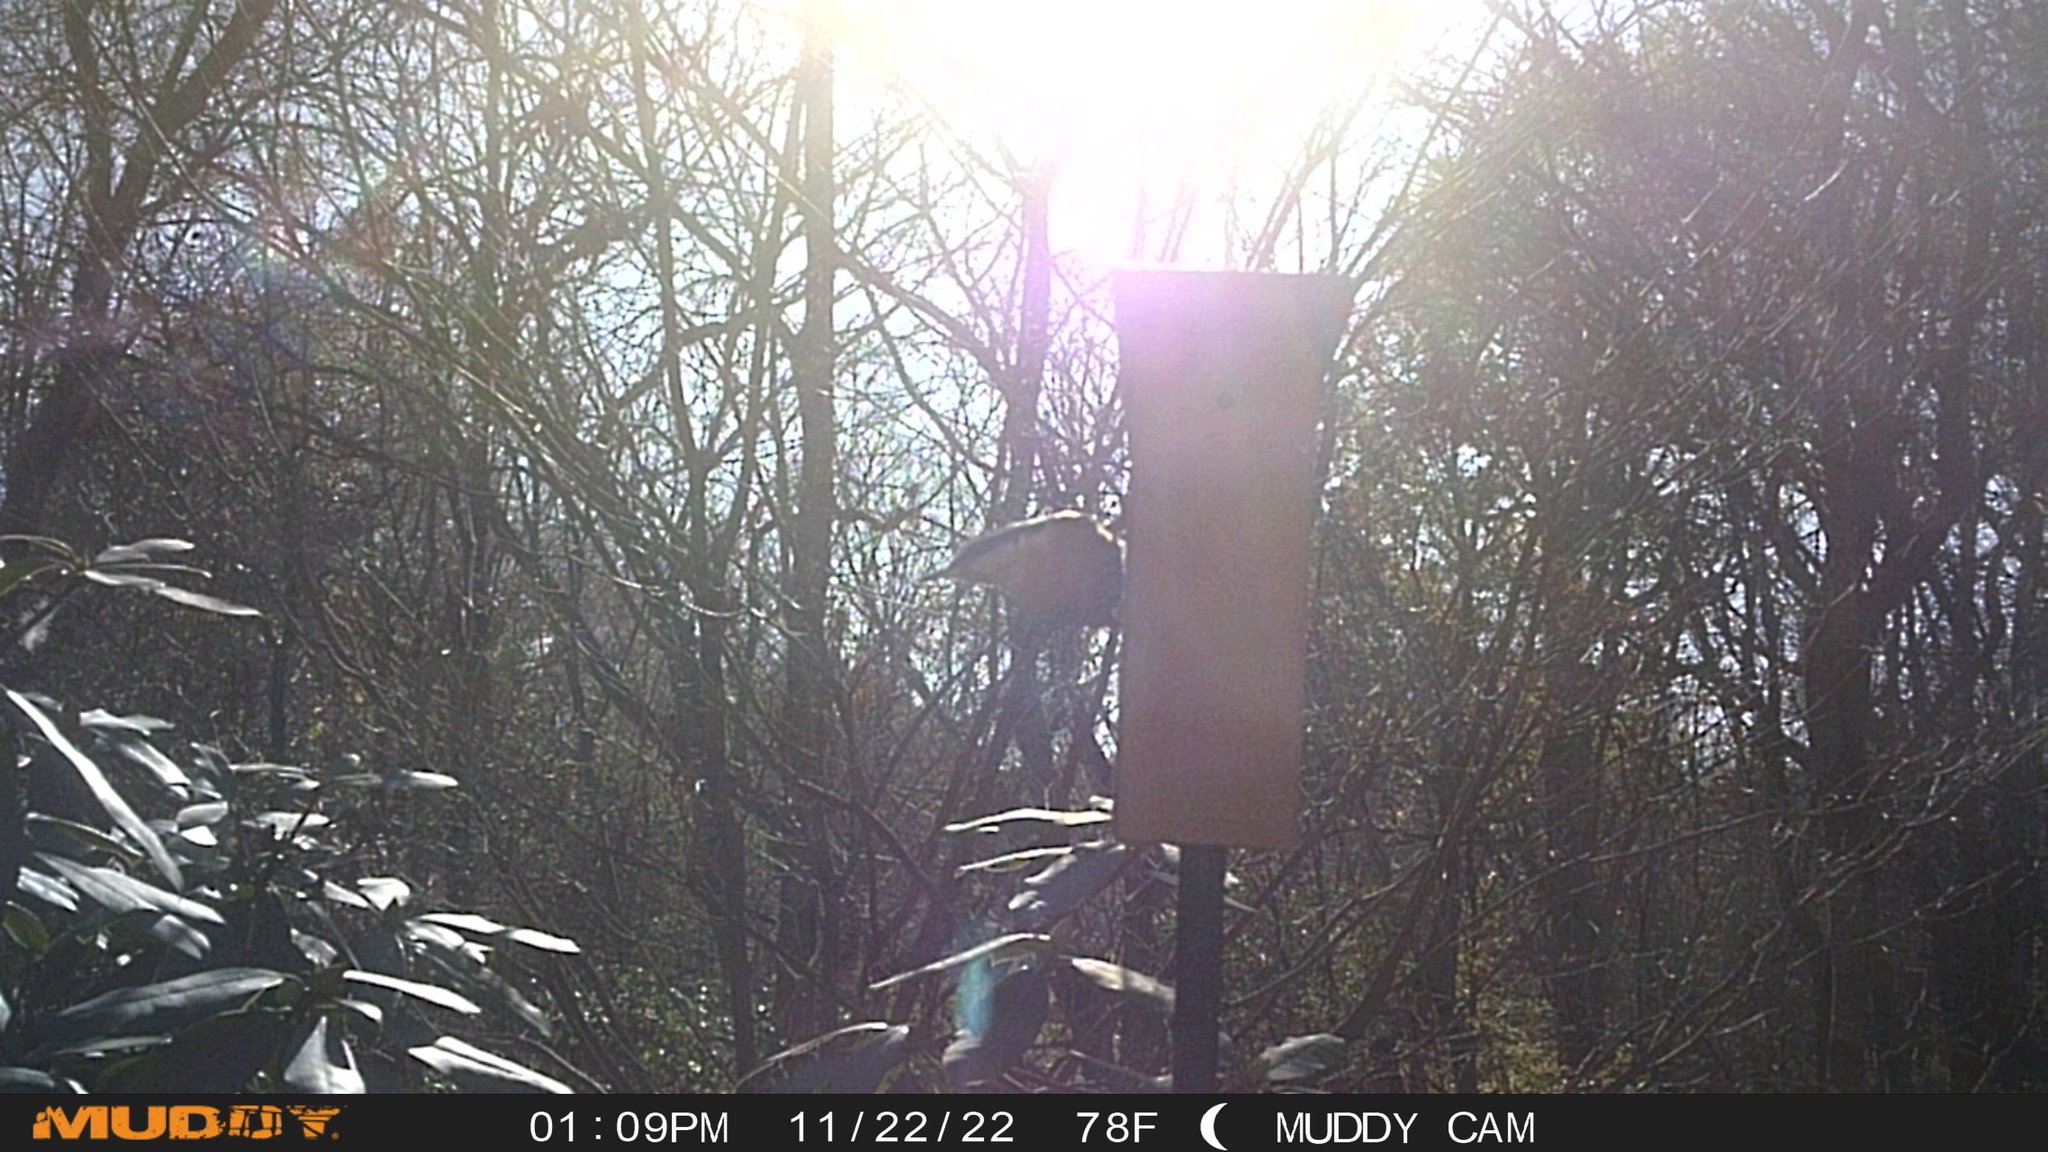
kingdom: Animalia
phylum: Chordata
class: Aves
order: Passeriformes
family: Sittidae
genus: Sitta
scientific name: Sitta canadensis
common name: Red-breasted nuthatch
